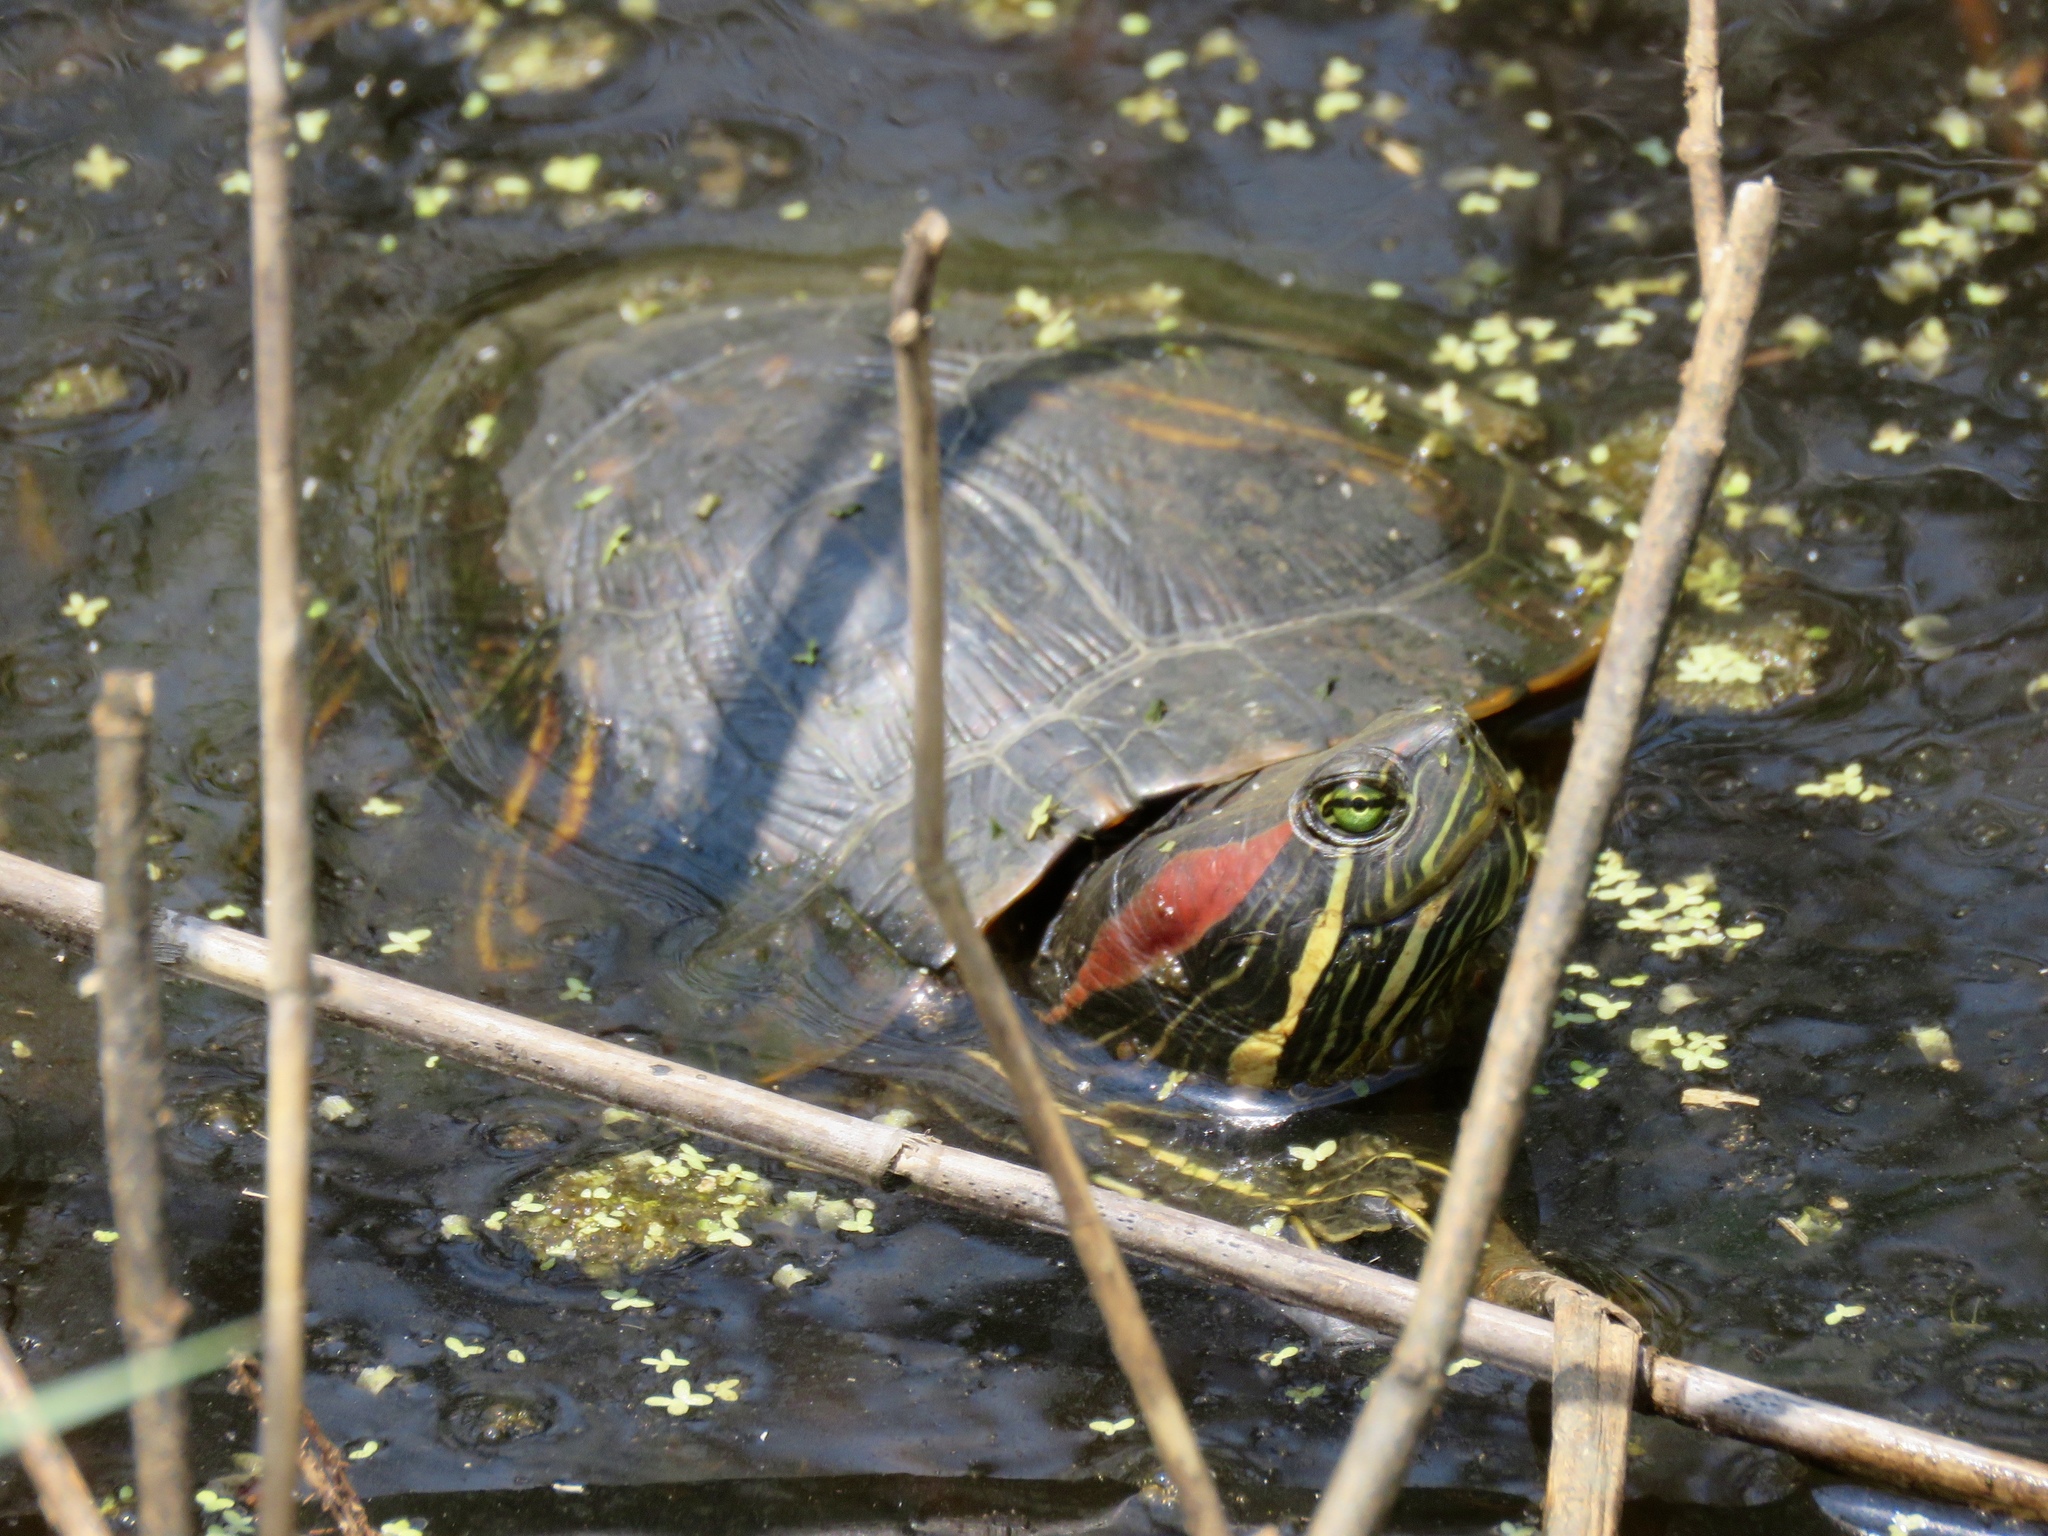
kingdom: Animalia
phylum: Chordata
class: Testudines
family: Emydidae
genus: Trachemys
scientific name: Trachemys scripta
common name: Slider
